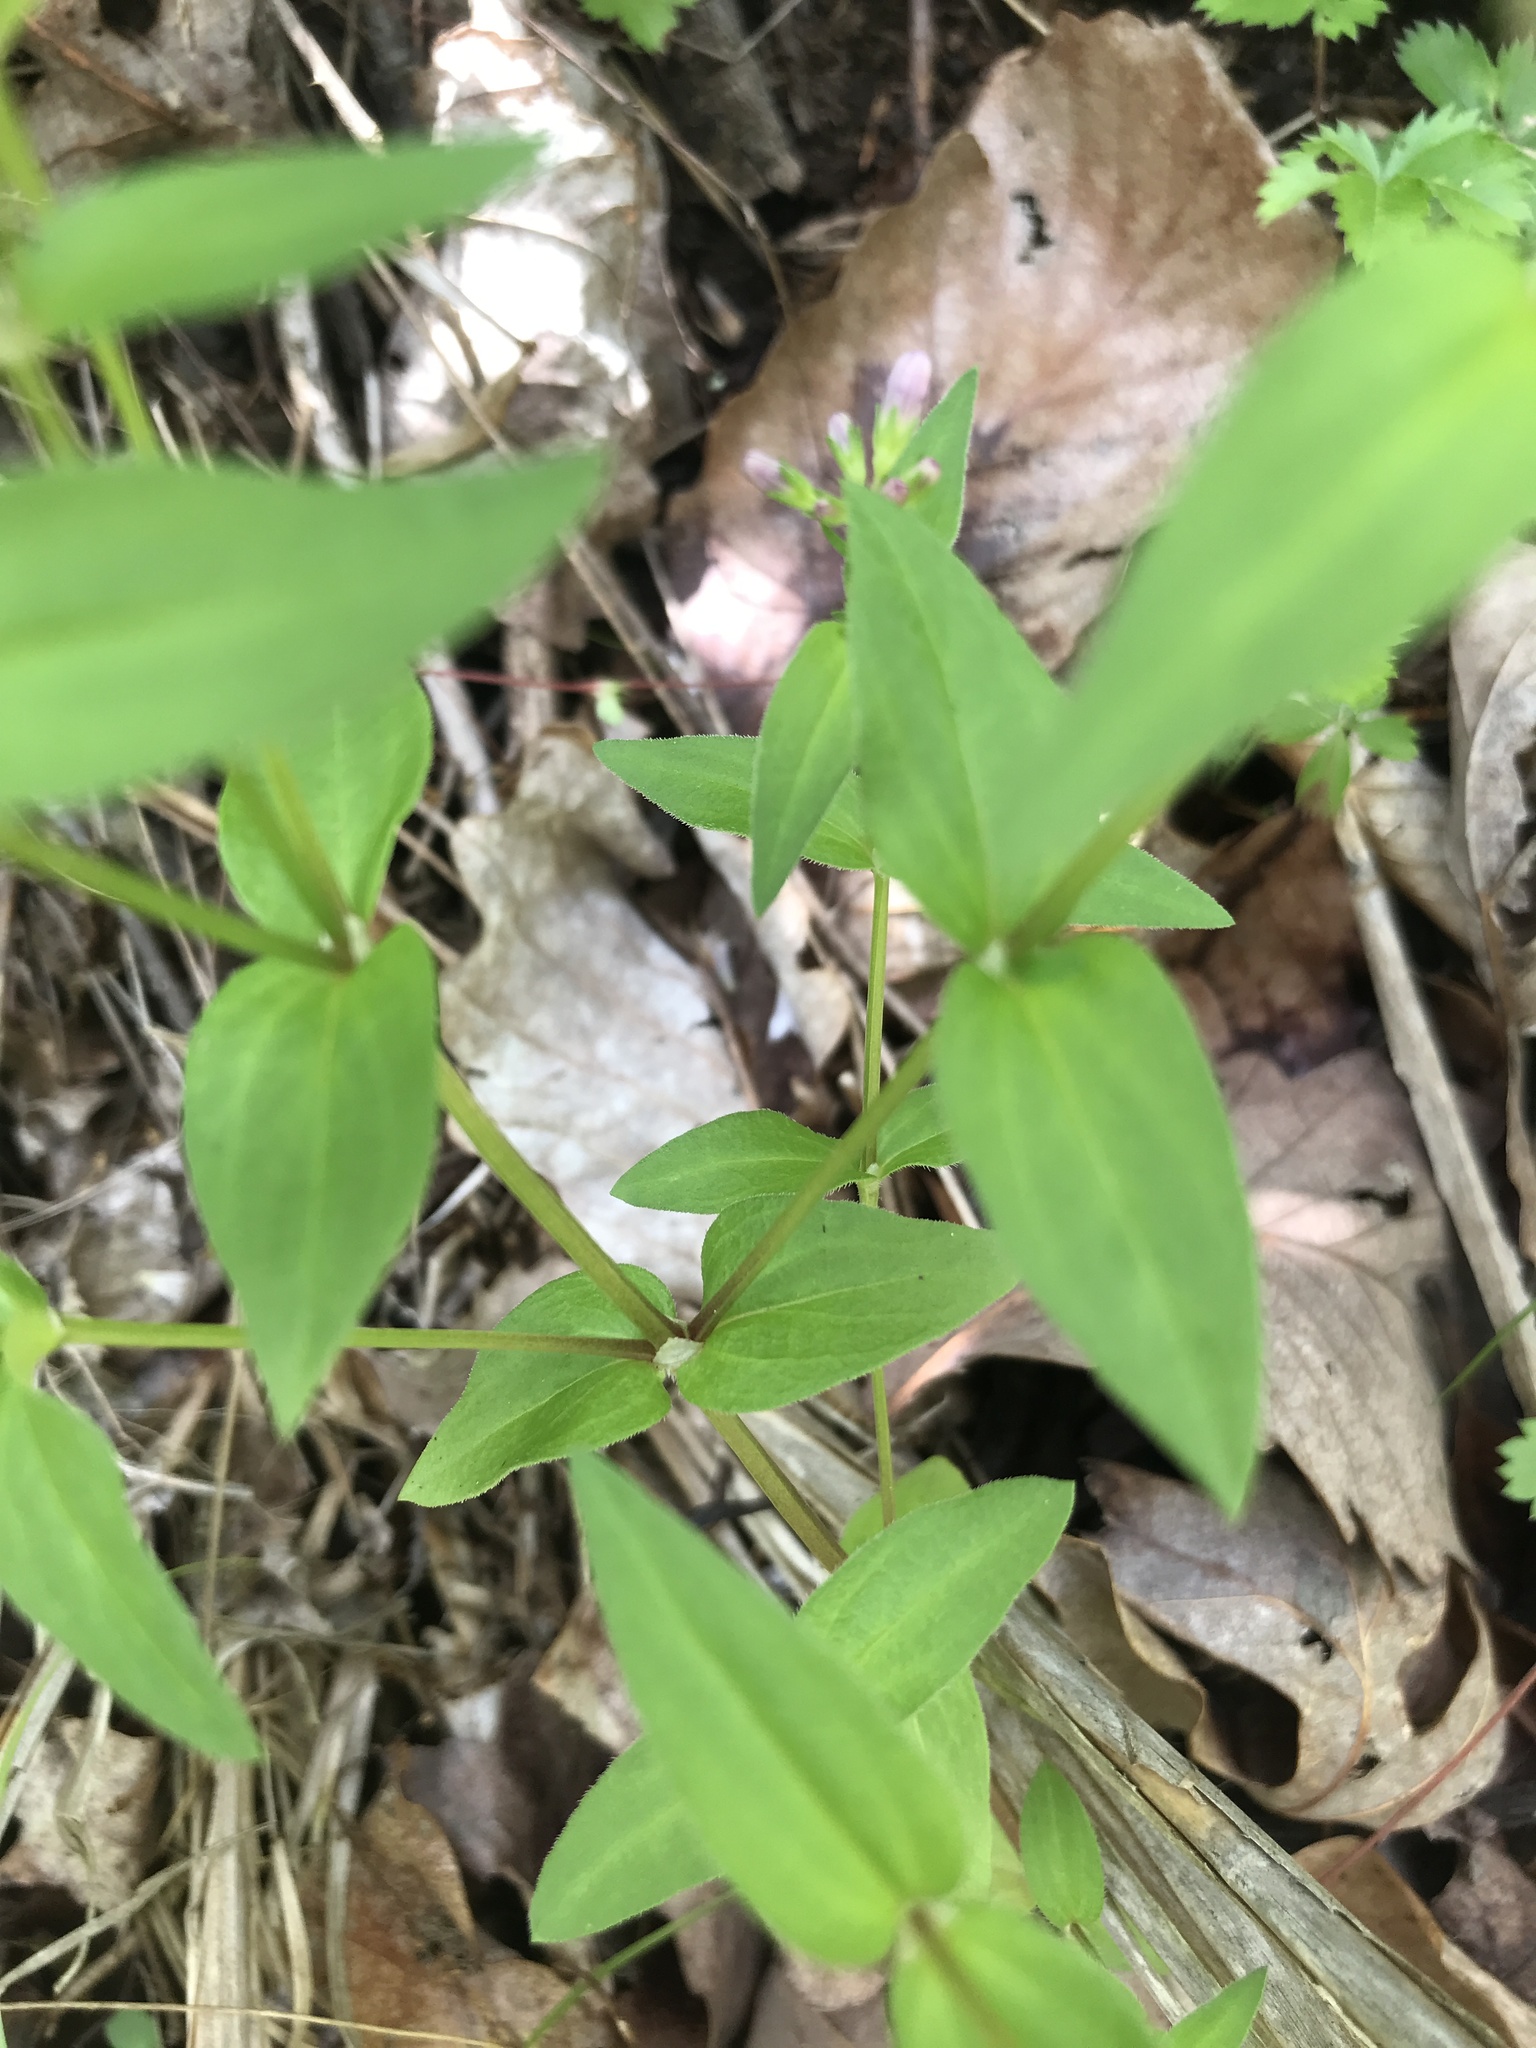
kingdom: Plantae
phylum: Tracheophyta
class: Magnoliopsida
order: Gentianales
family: Rubiaceae
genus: Houstonia
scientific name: Houstonia purpurea
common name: Summer bluet
